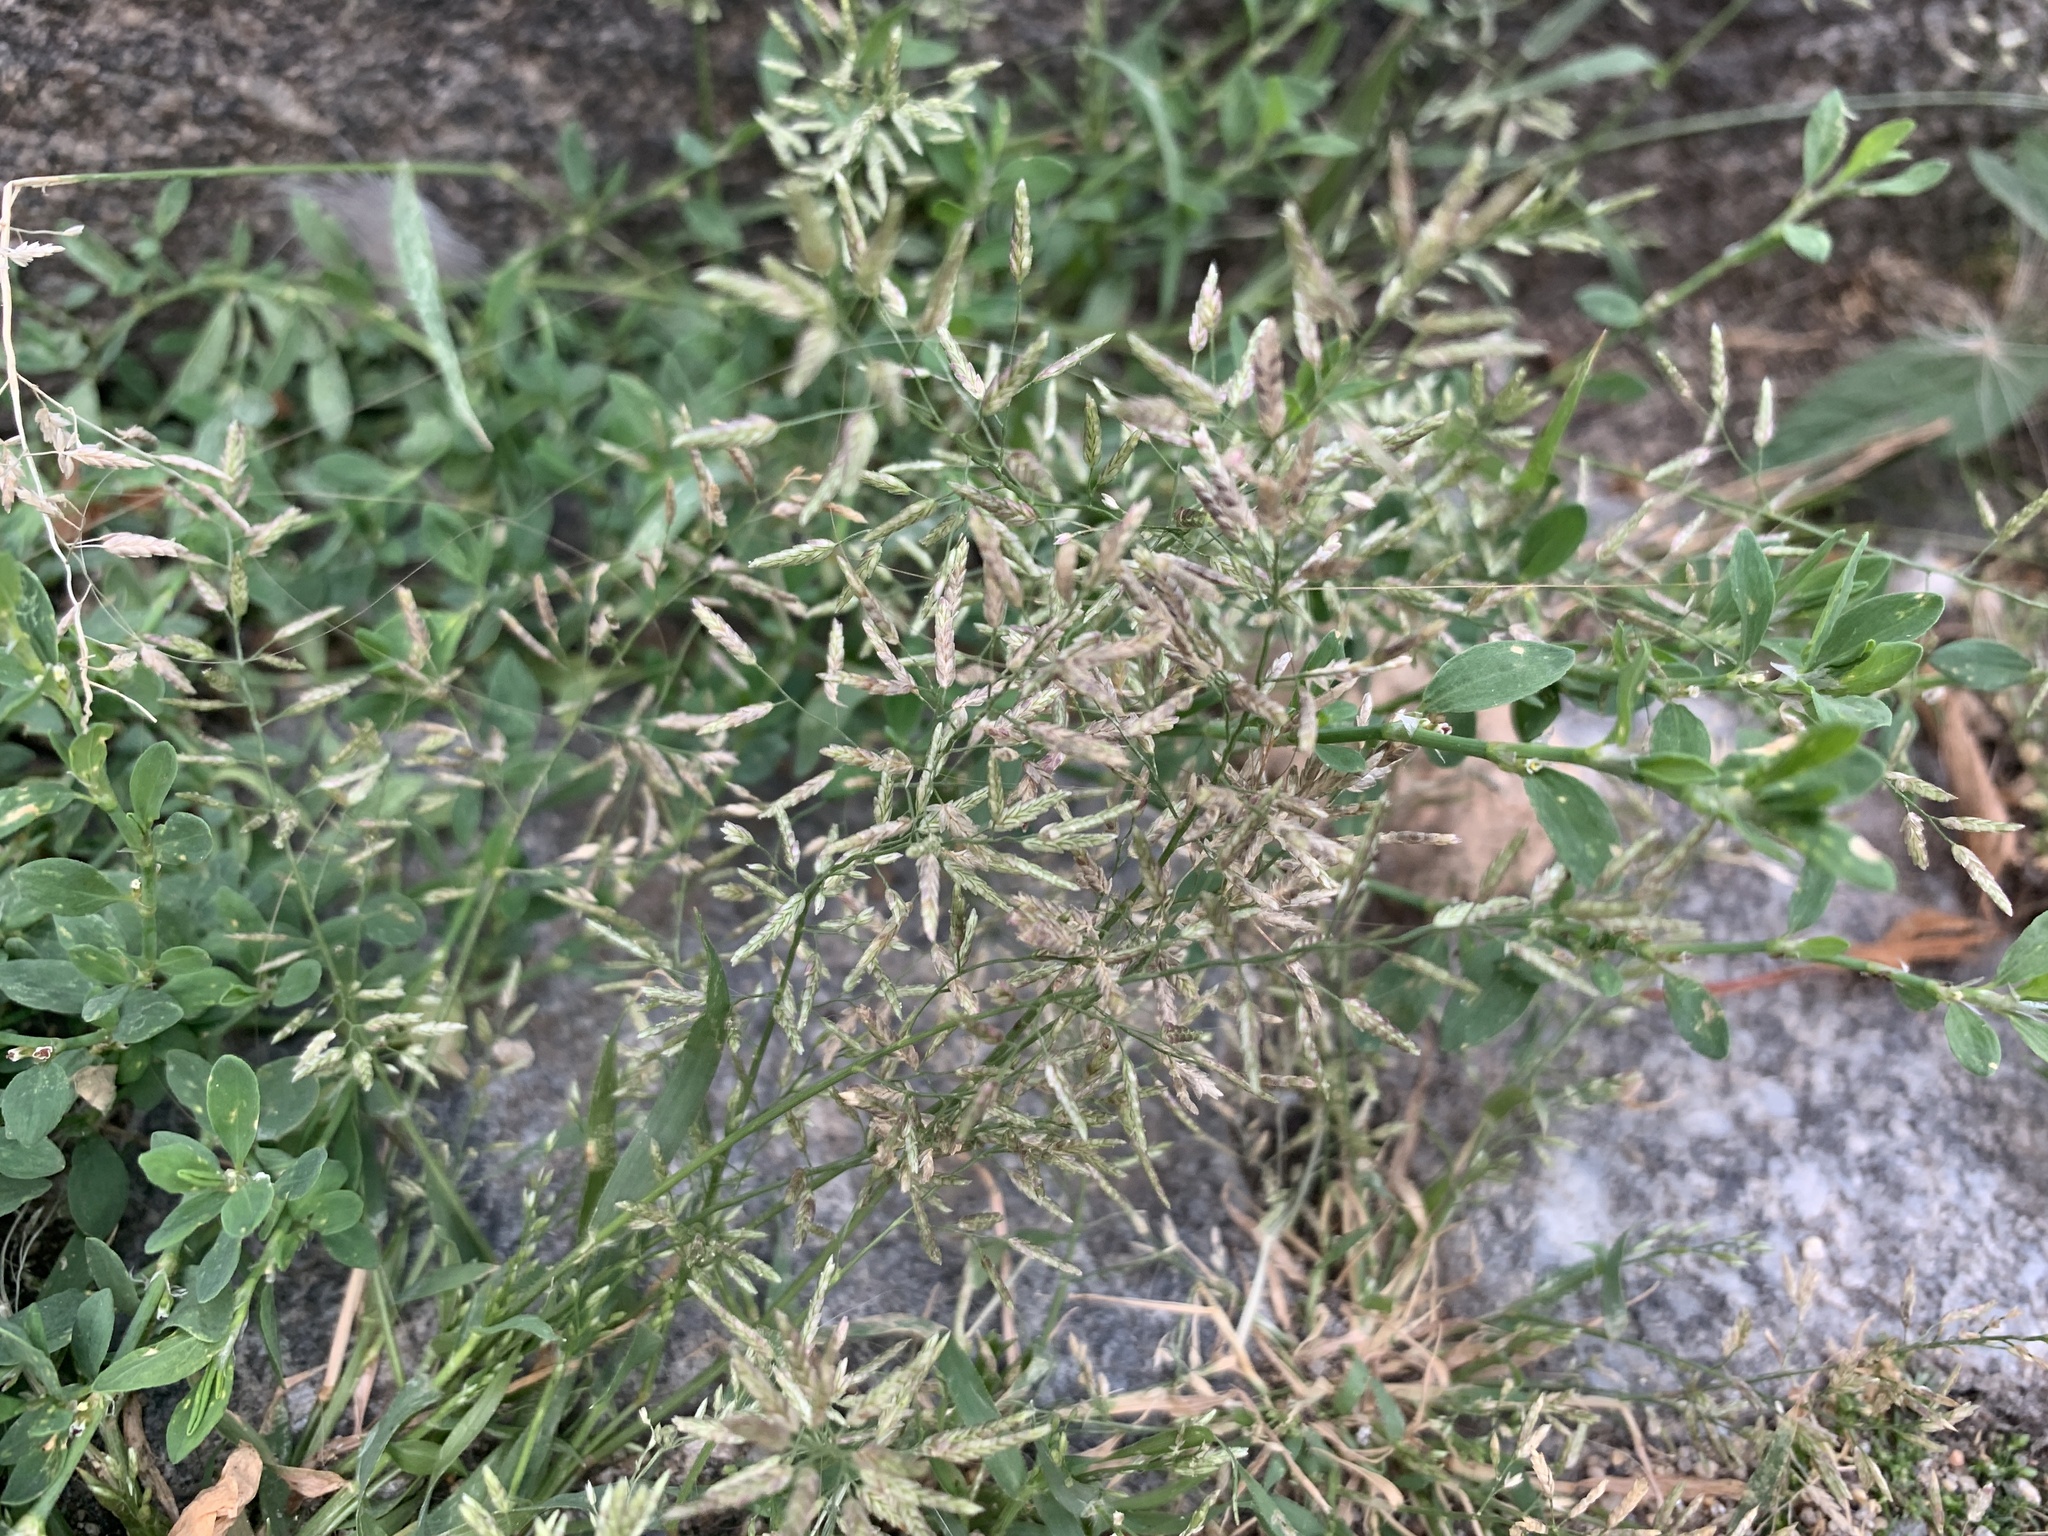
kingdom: Plantae
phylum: Tracheophyta
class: Liliopsida
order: Poales
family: Poaceae
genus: Eragrostis
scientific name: Eragrostis minor
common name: Small love-grass
